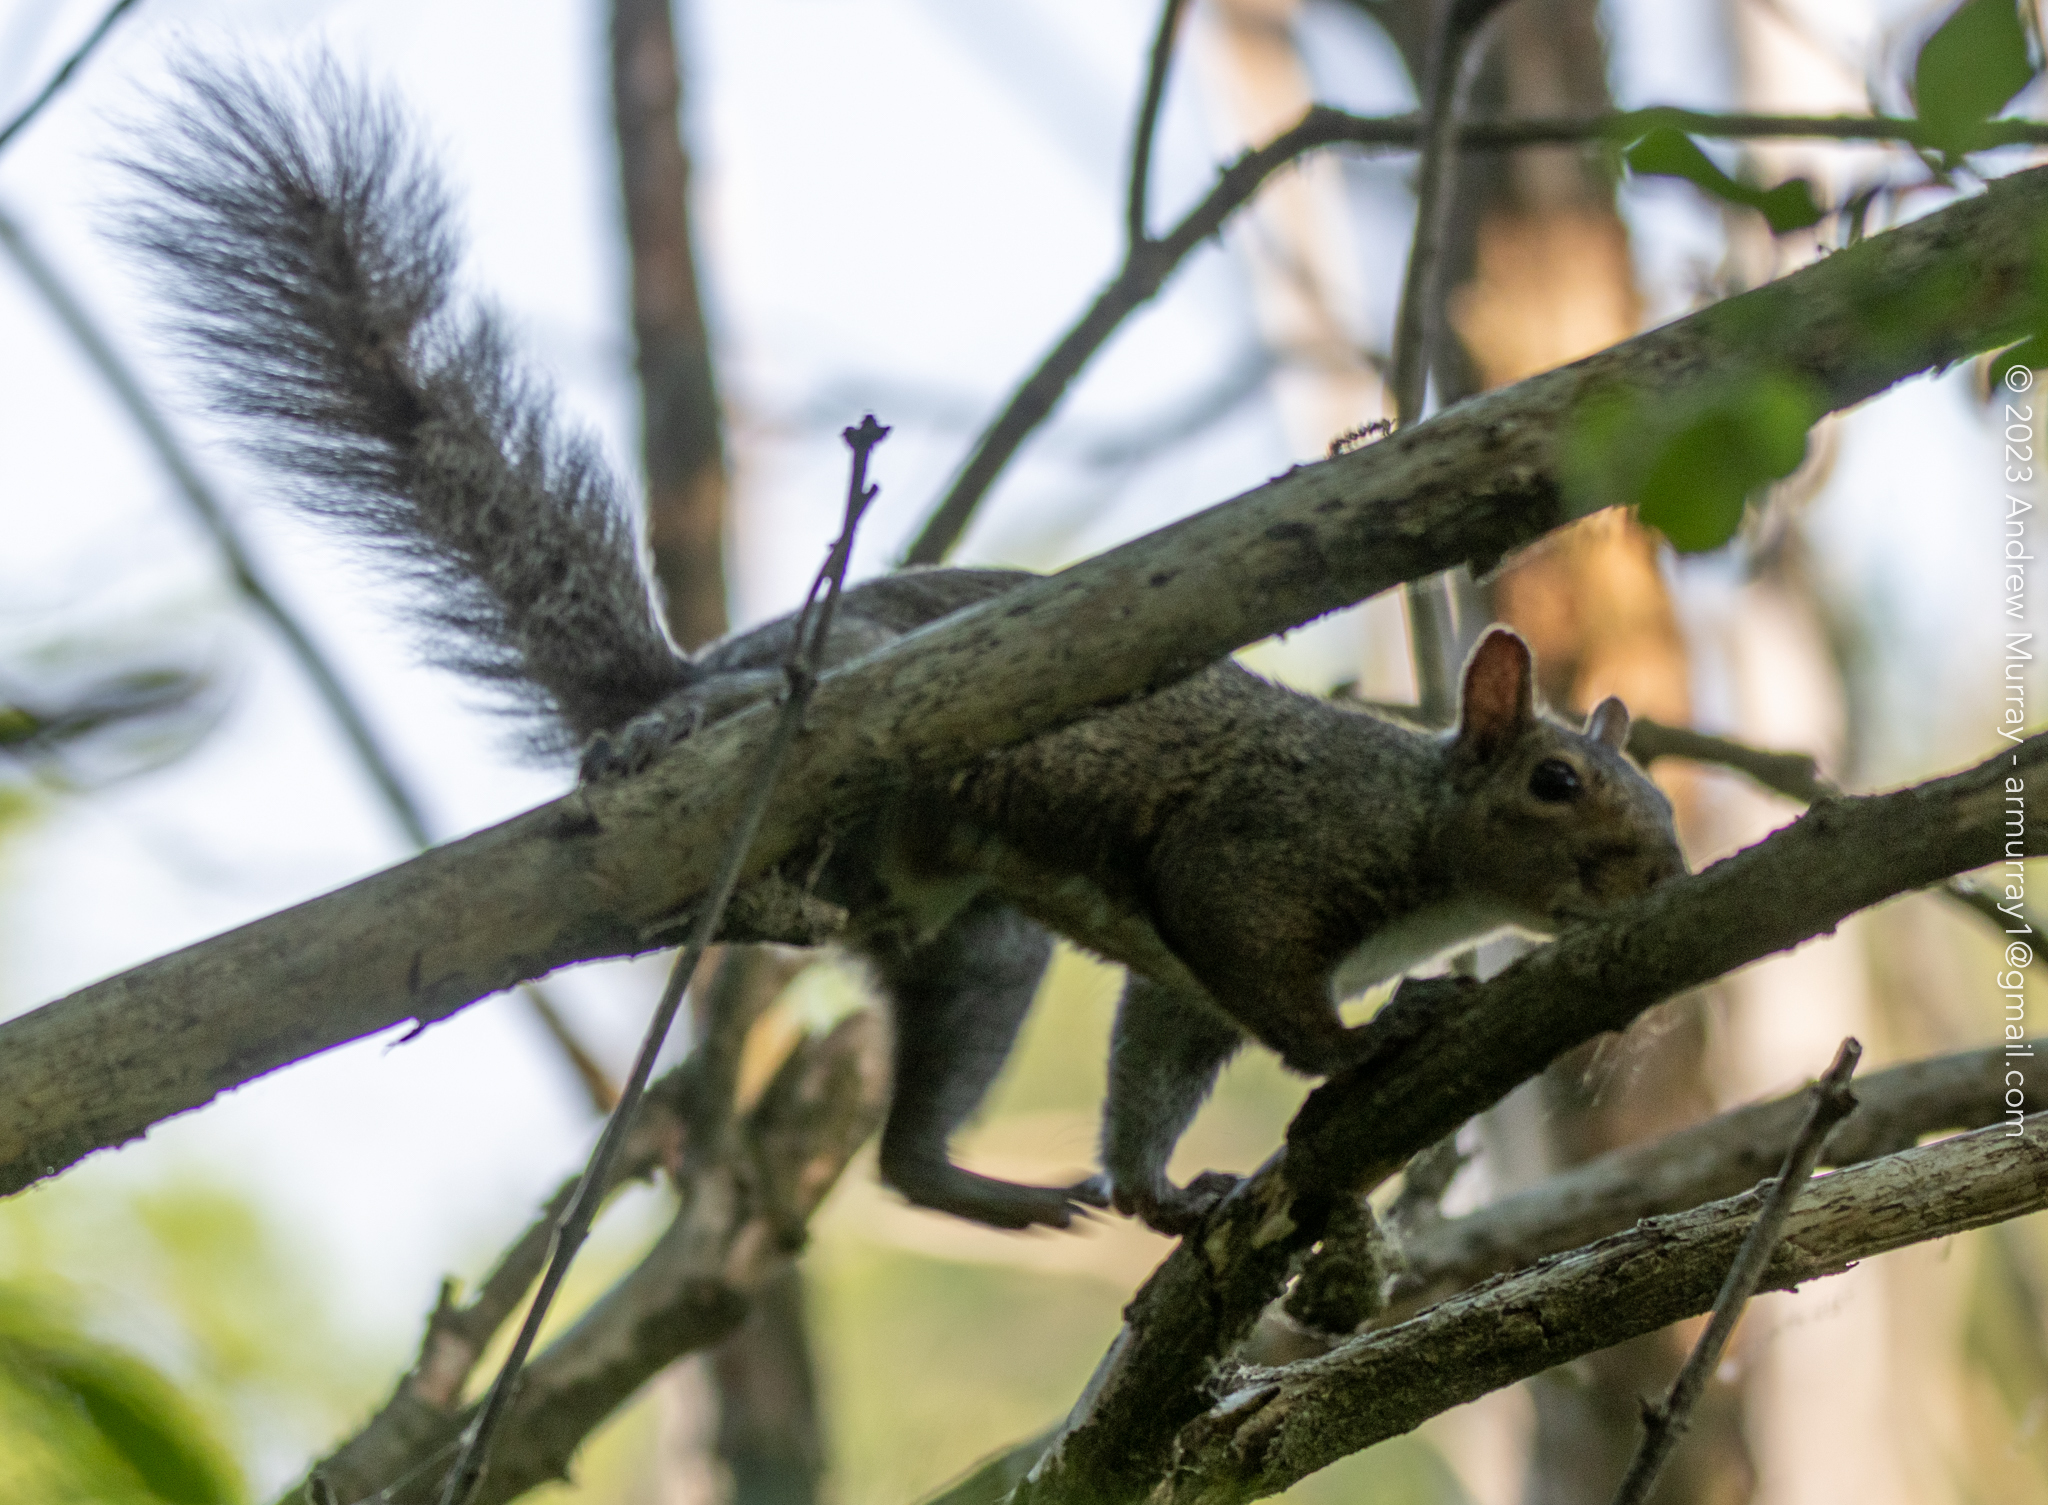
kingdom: Animalia
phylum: Chordata
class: Mammalia
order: Rodentia
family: Sciuridae
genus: Sciurus
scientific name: Sciurus carolinensis
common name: Eastern gray squirrel
